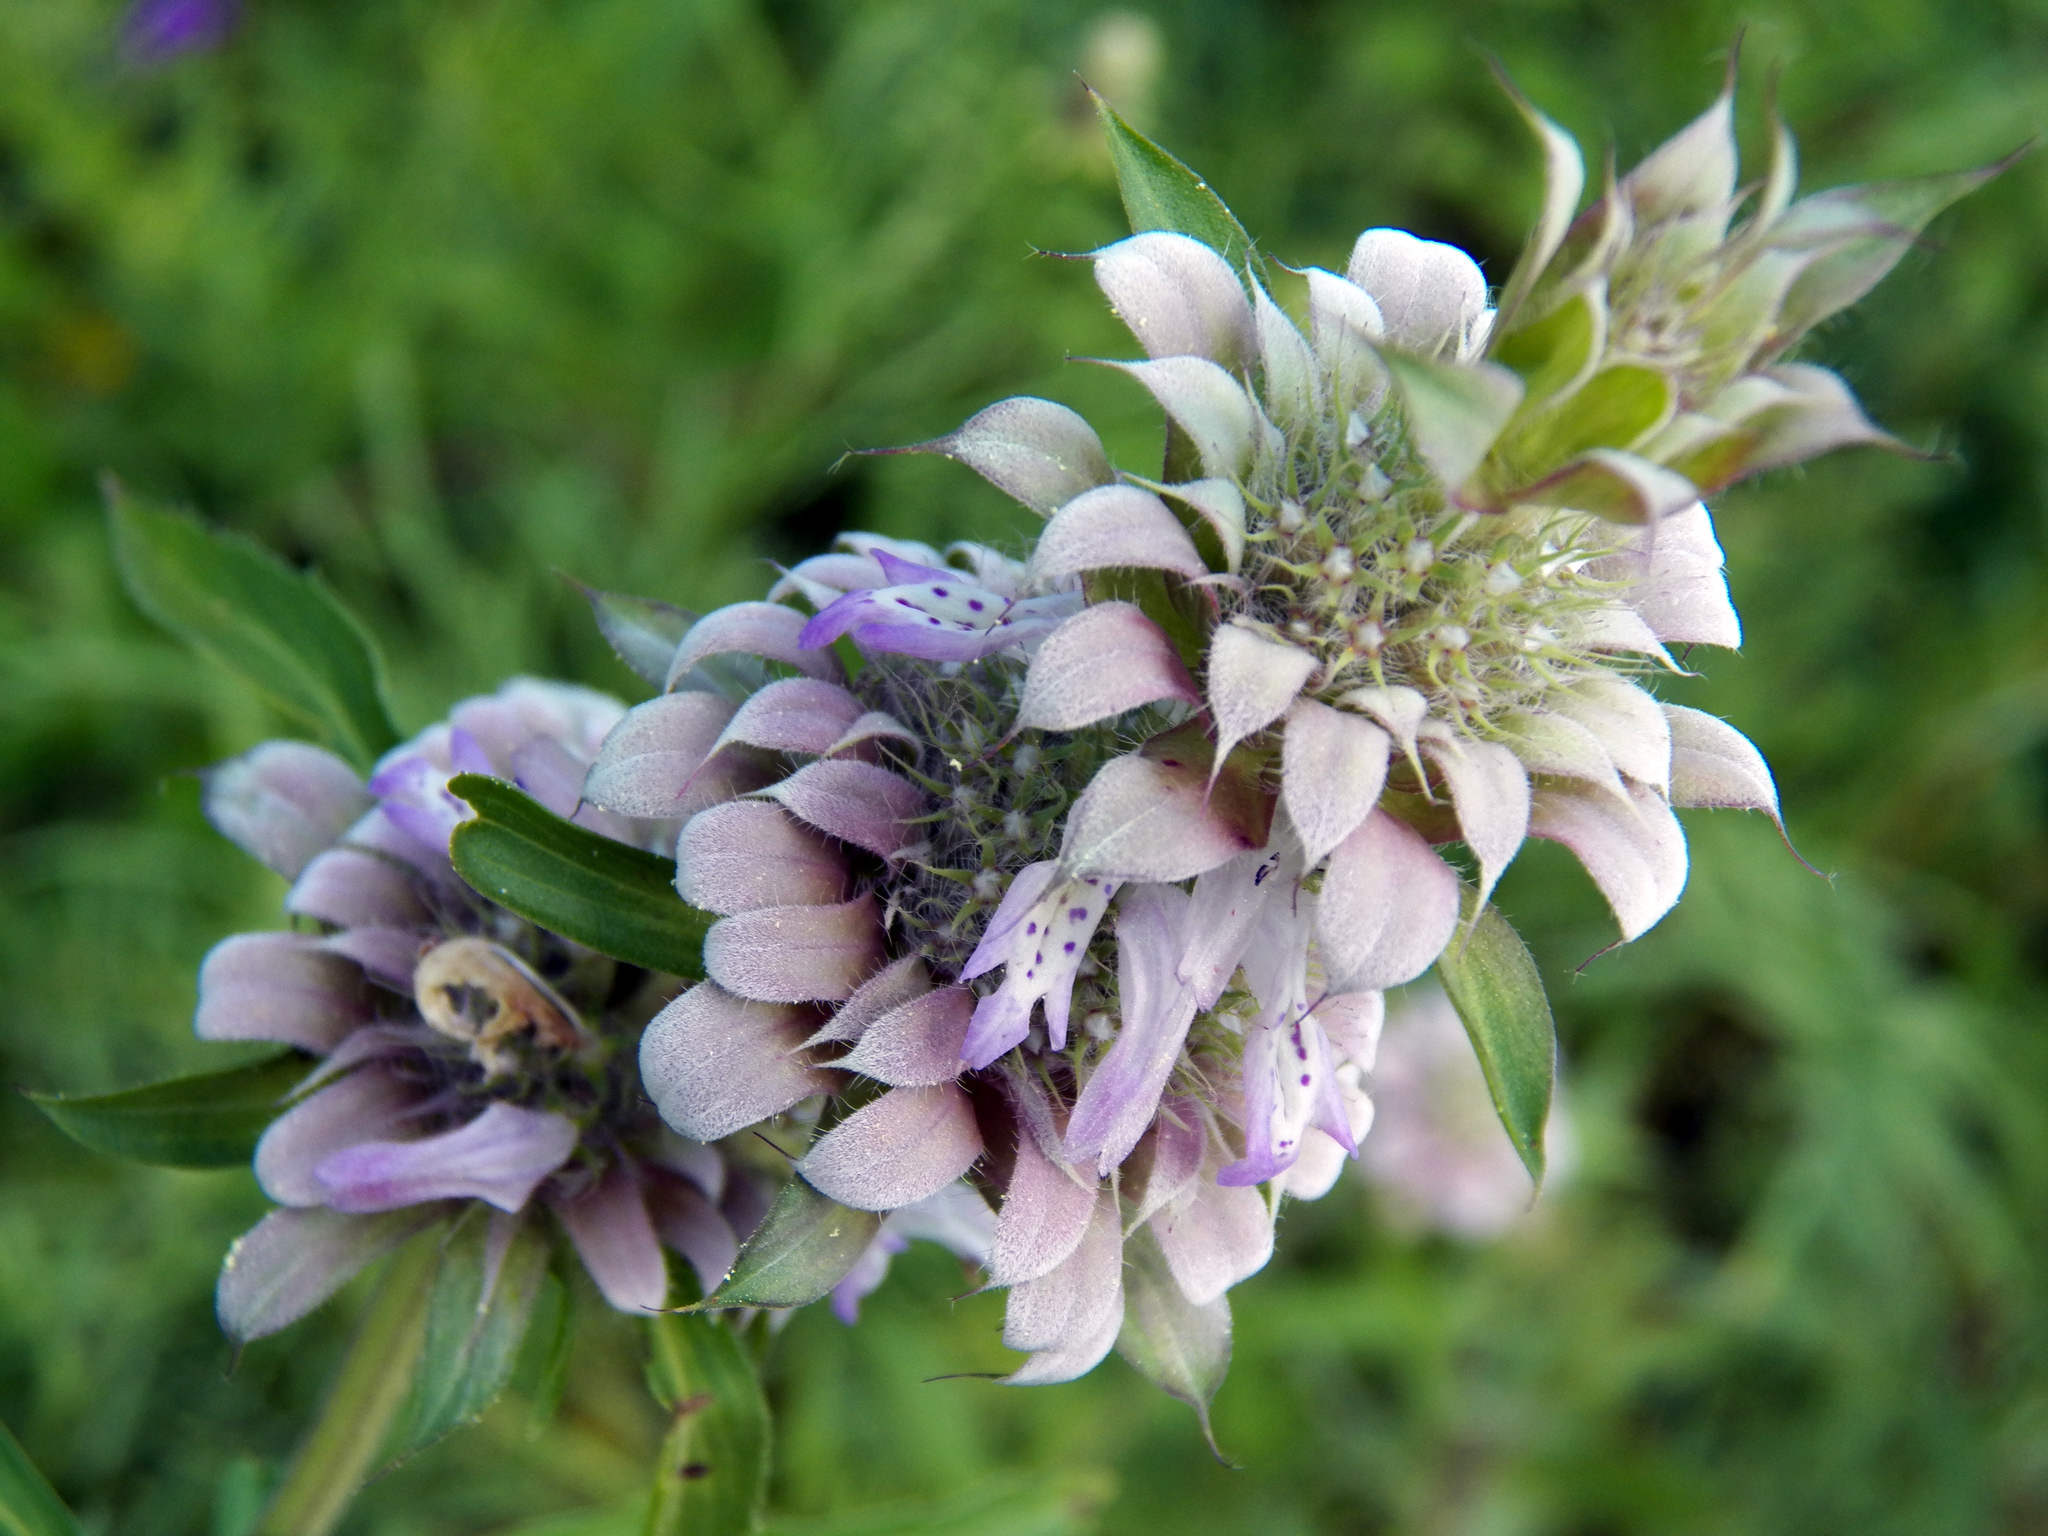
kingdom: Plantae
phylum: Tracheophyta
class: Magnoliopsida
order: Lamiales
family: Lamiaceae
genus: Monarda
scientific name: Monarda citriodora
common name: Lemon beebalm
